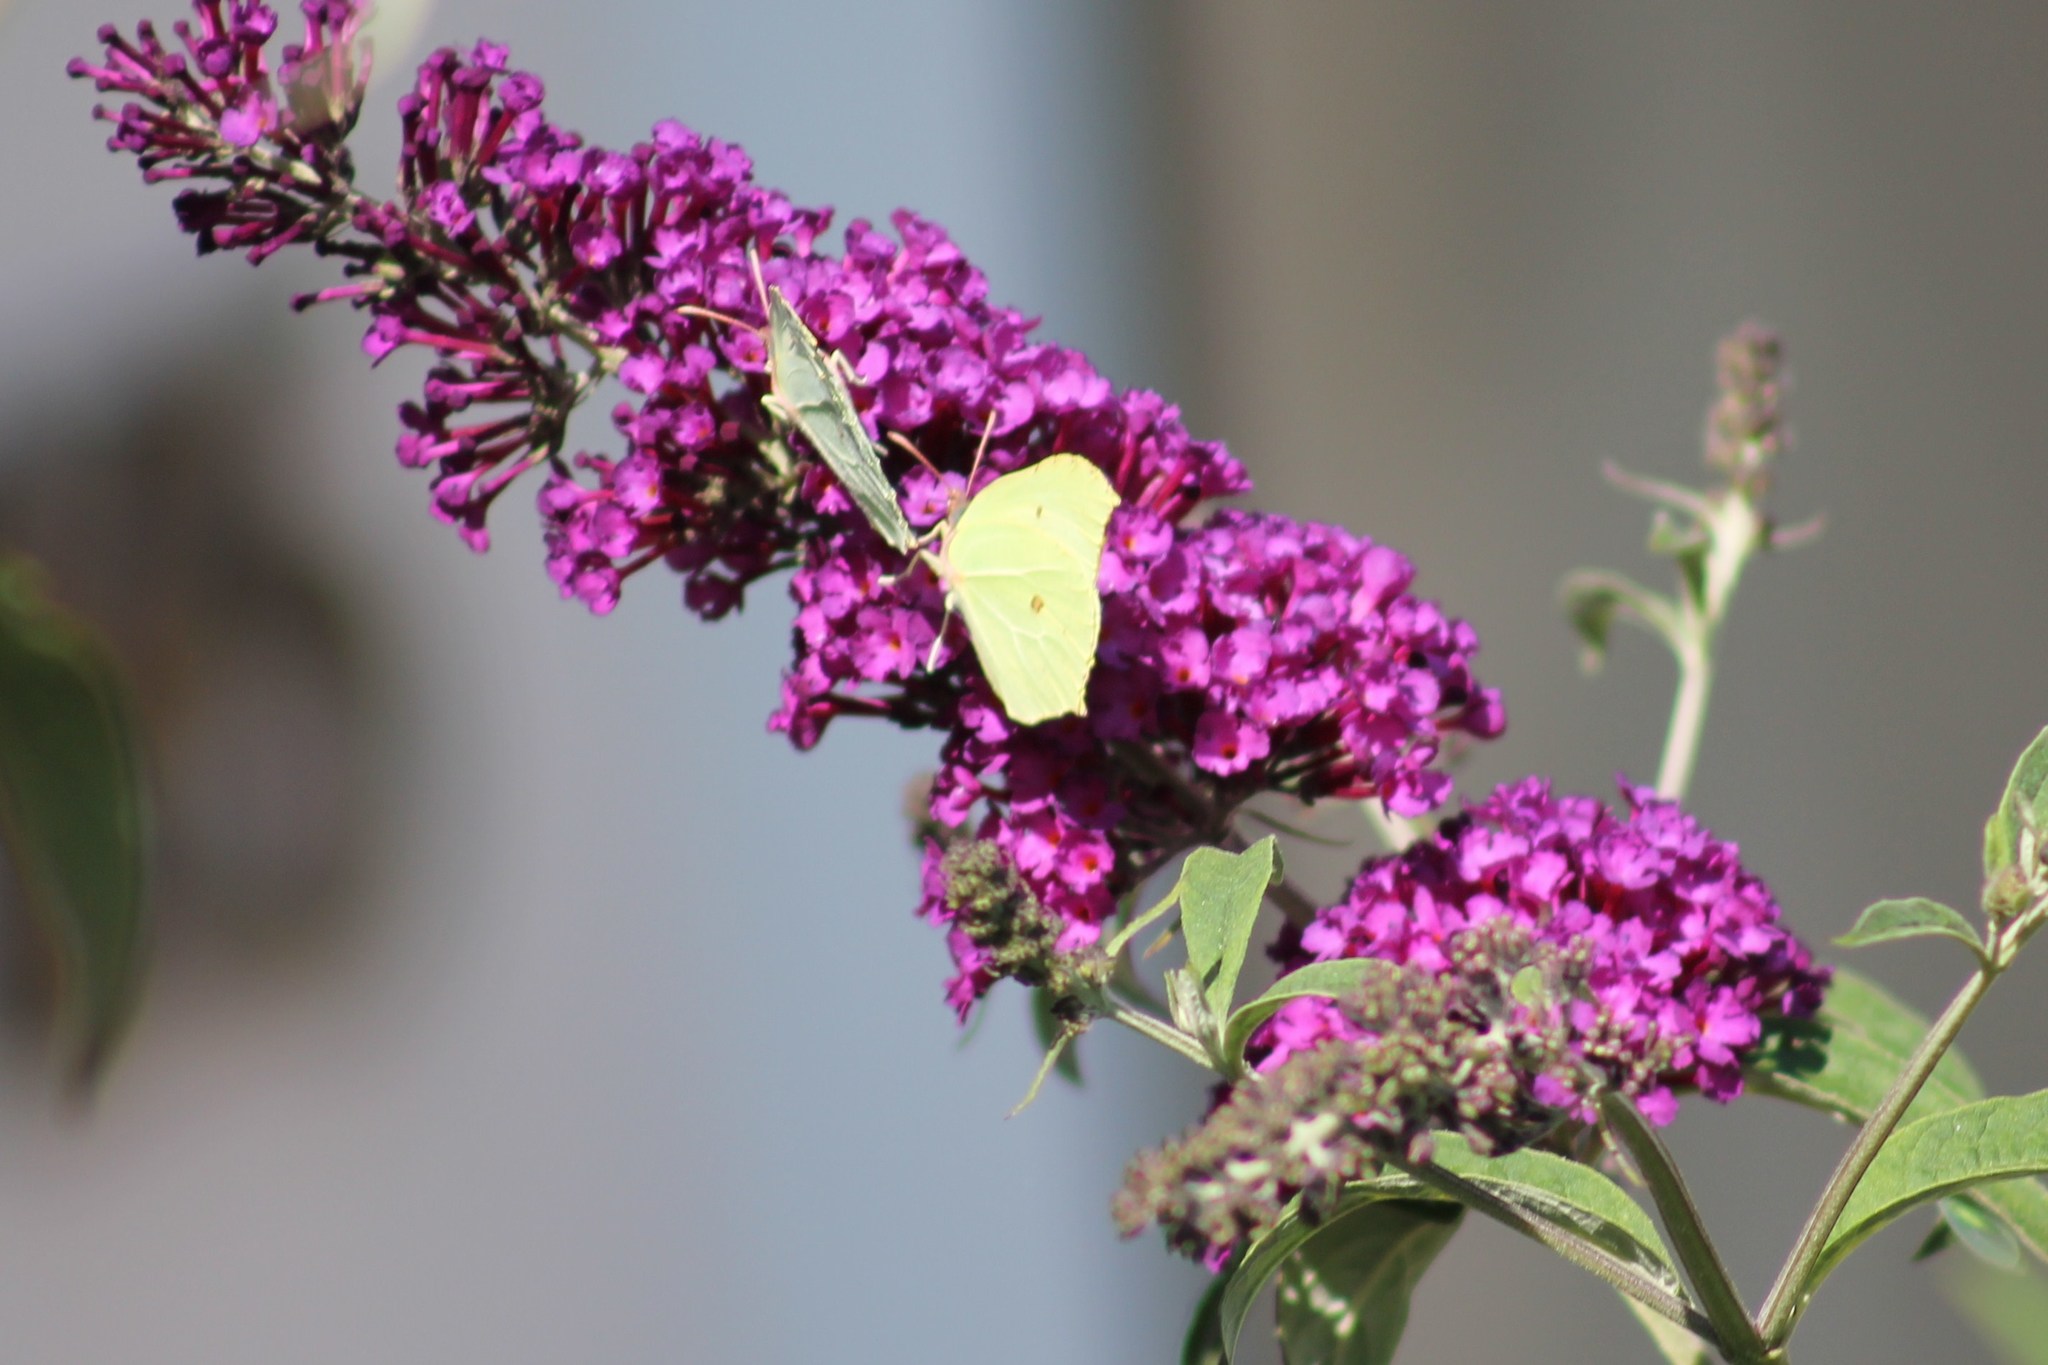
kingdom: Animalia
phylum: Arthropoda
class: Insecta
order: Lepidoptera
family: Pieridae
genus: Gonepteryx
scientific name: Gonepteryx rhamni
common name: Brimstone
